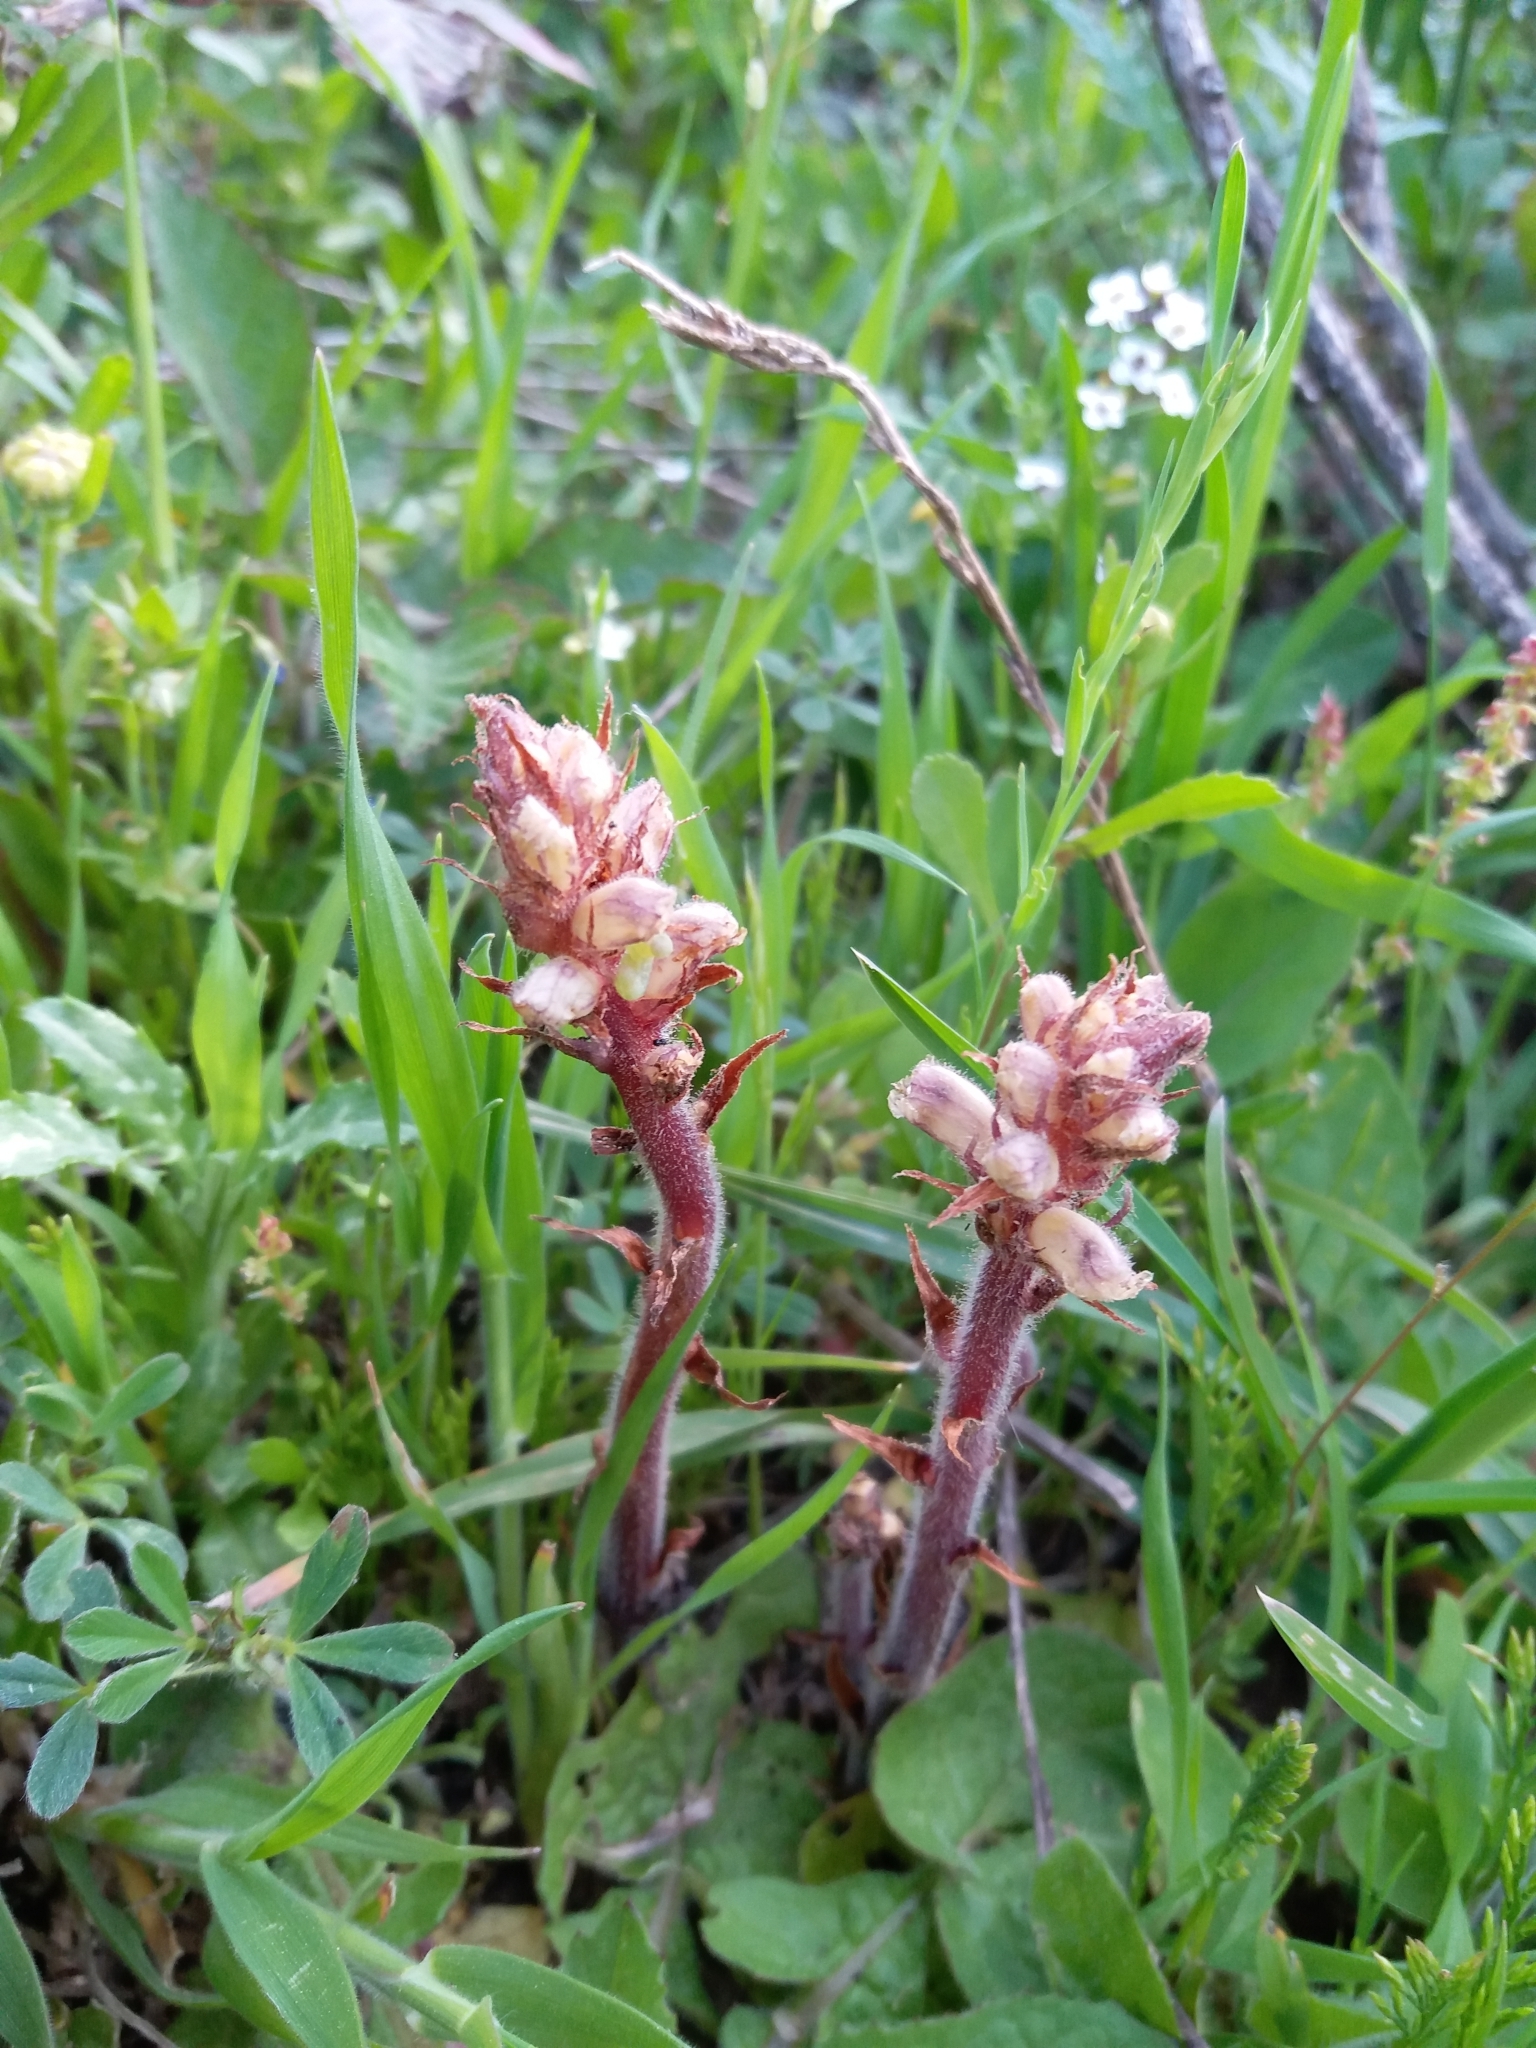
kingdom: Plantae
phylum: Tracheophyta
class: Magnoliopsida
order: Lamiales
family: Orobanchaceae
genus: Orobanche
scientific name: Orobanche minor
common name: Common broomrape
